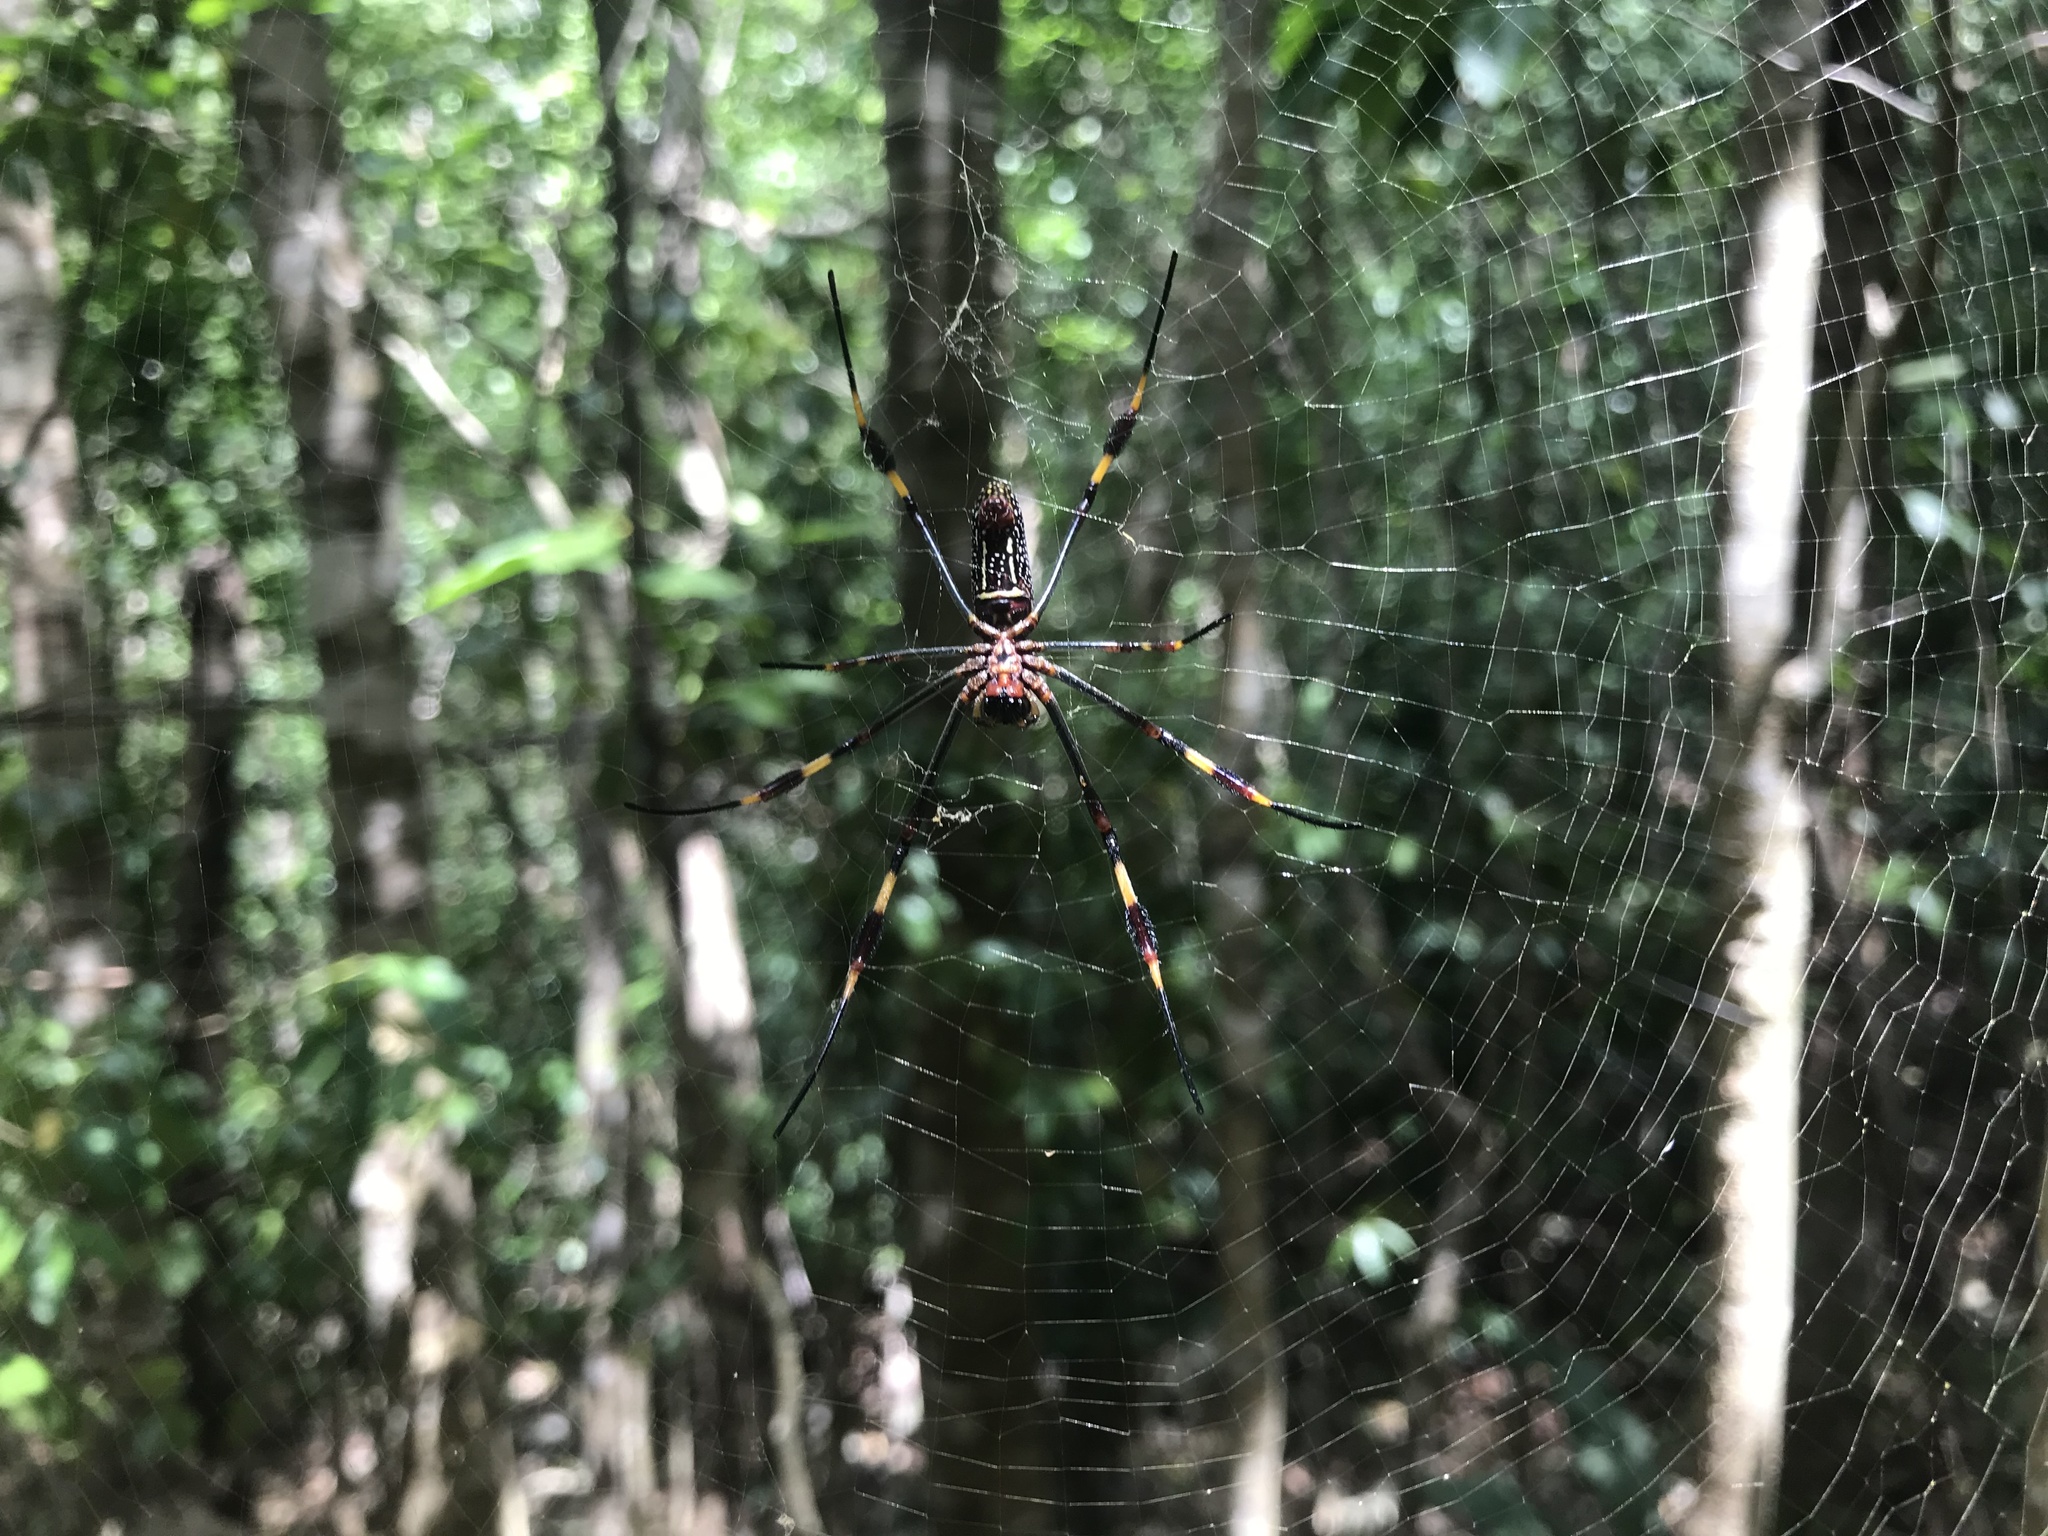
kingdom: Animalia
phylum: Arthropoda
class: Arachnida
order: Araneae
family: Araneidae
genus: Trichonephila
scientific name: Trichonephila clavipes
